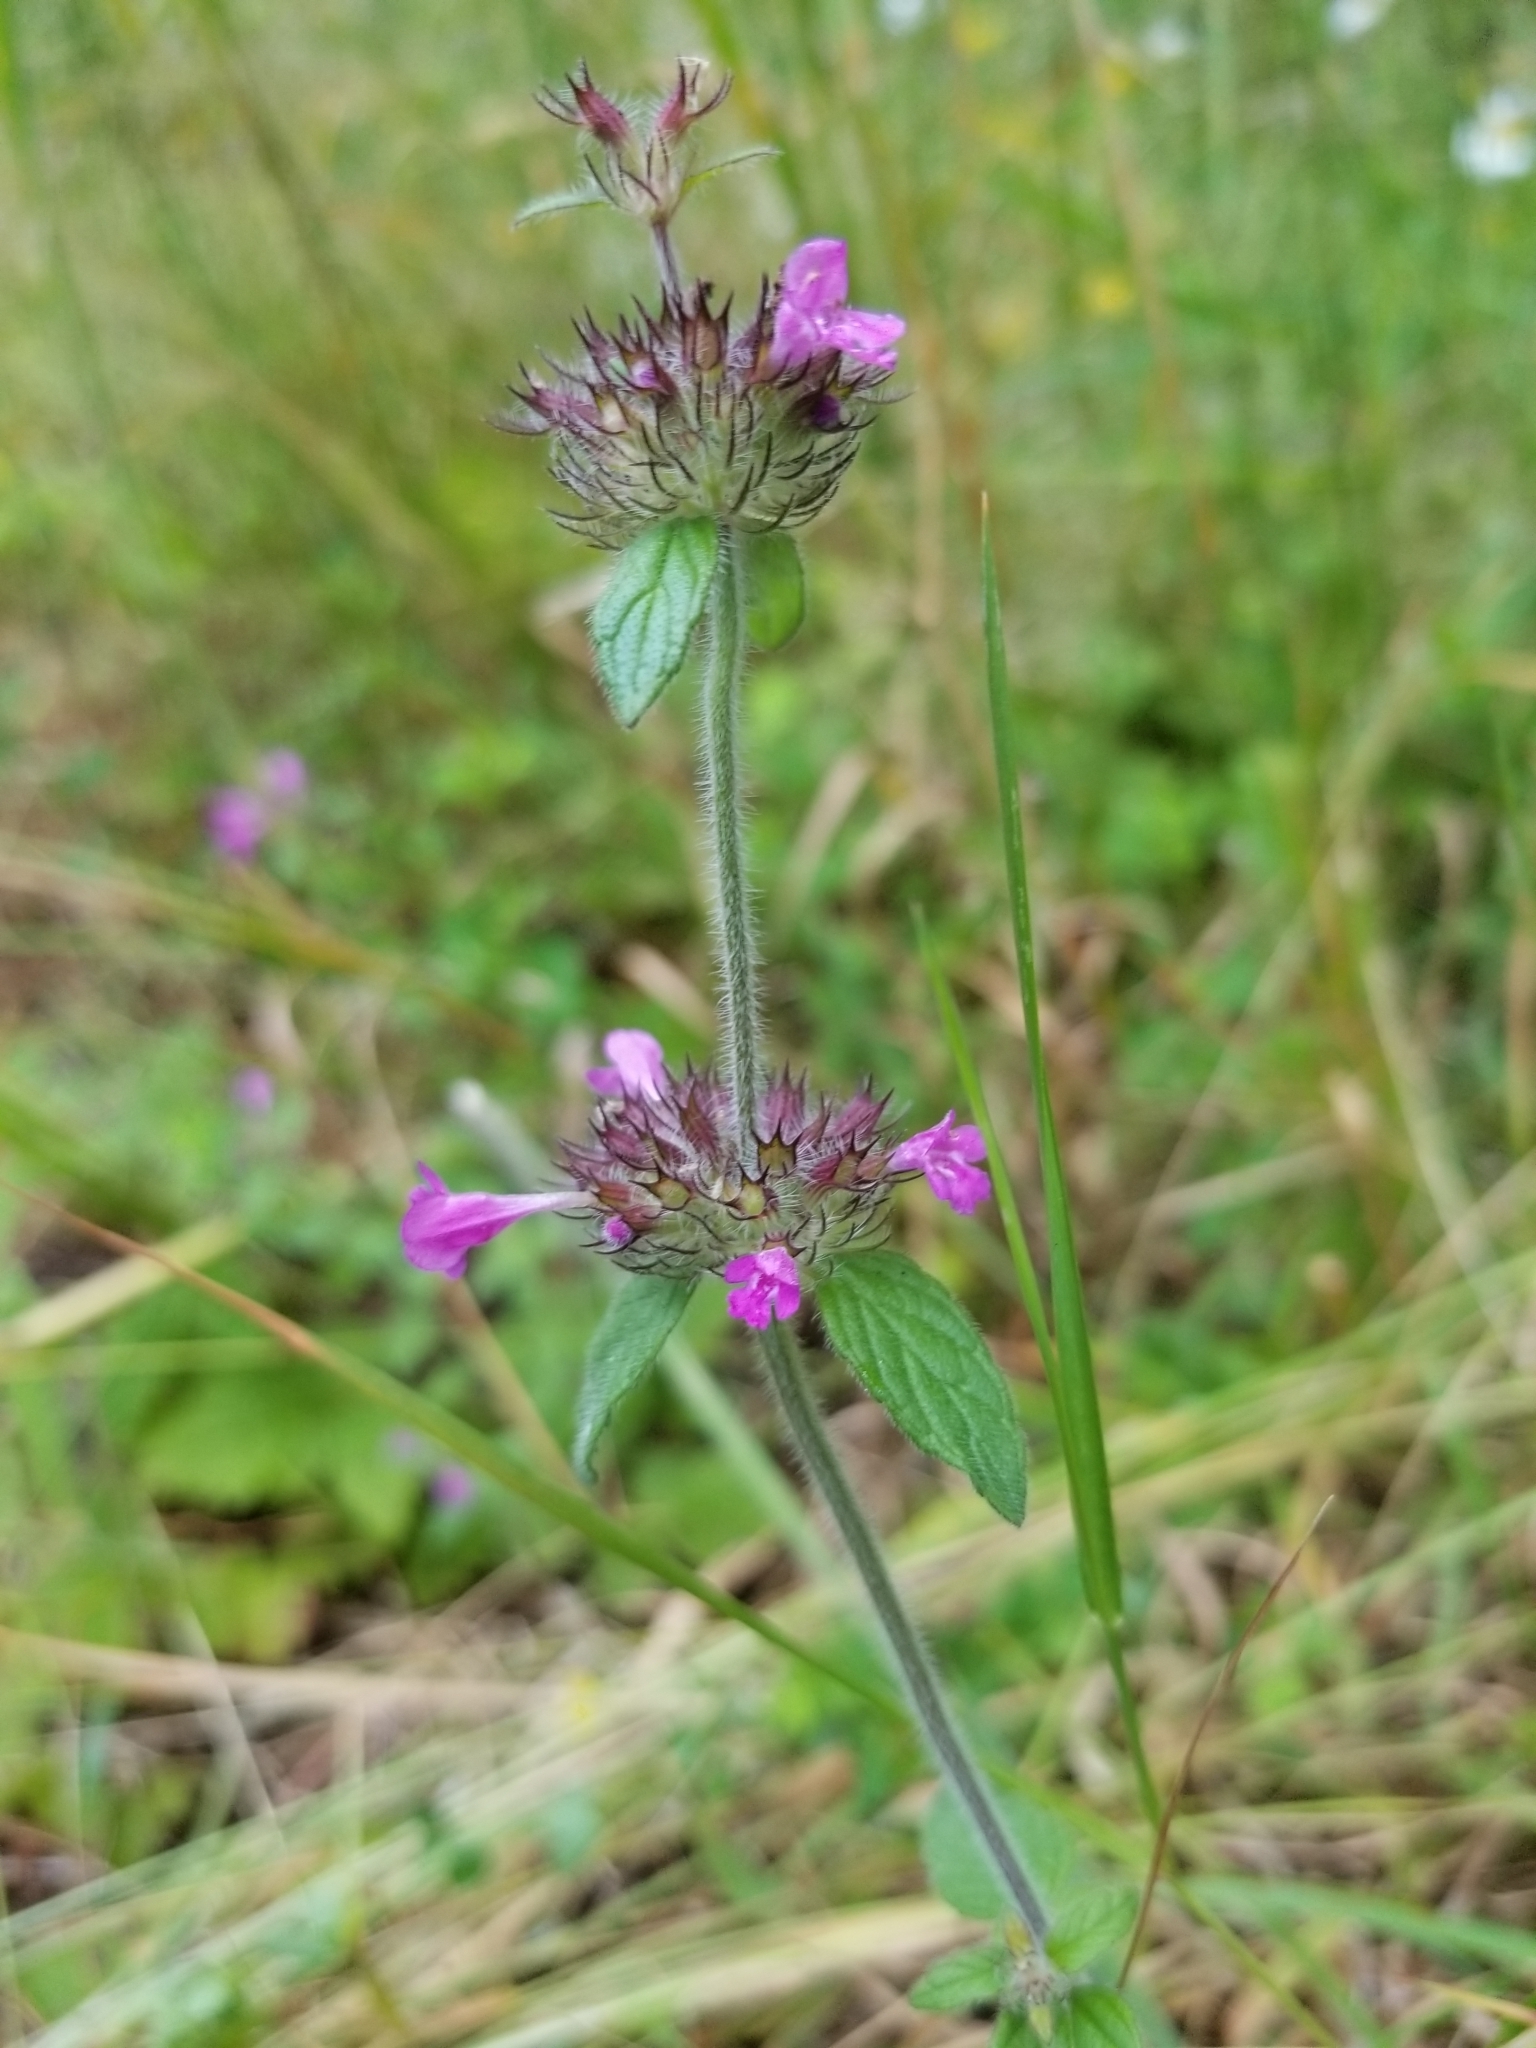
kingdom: Plantae
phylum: Tracheophyta
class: Magnoliopsida
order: Lamiales
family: Lamiaceae
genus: Clinopodium
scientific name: Clinopodium vulgare
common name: Wild basil
